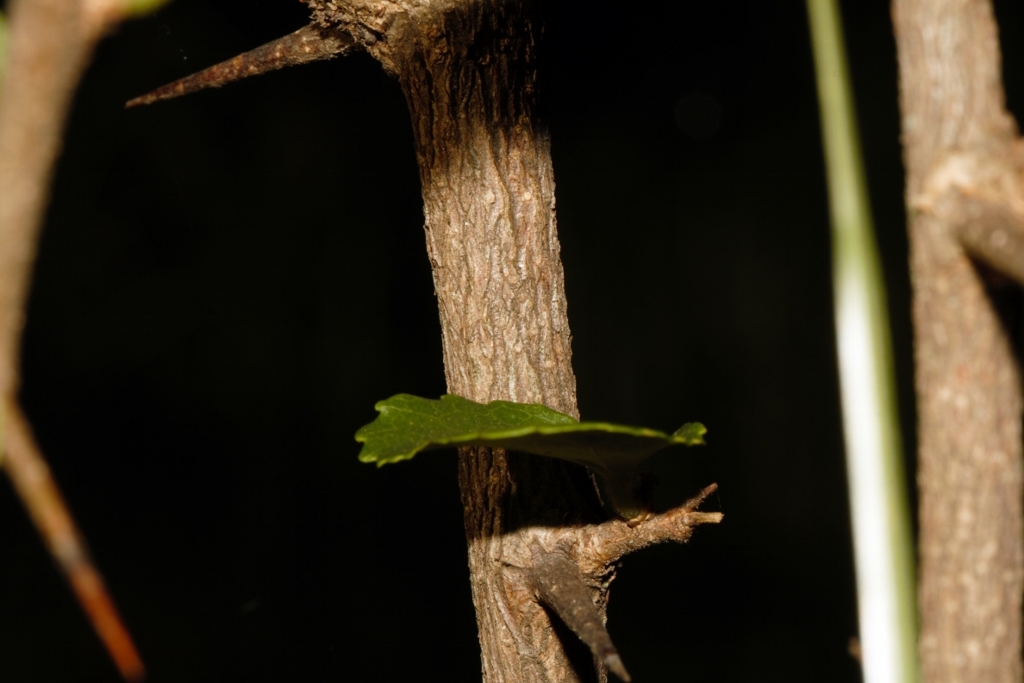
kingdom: Plantae
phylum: Tracheophyta
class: Magnoliopsida
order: Malpighiales
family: Salicaceae
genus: Flacourtia
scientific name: Flacourtia indica
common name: Governor's plum
